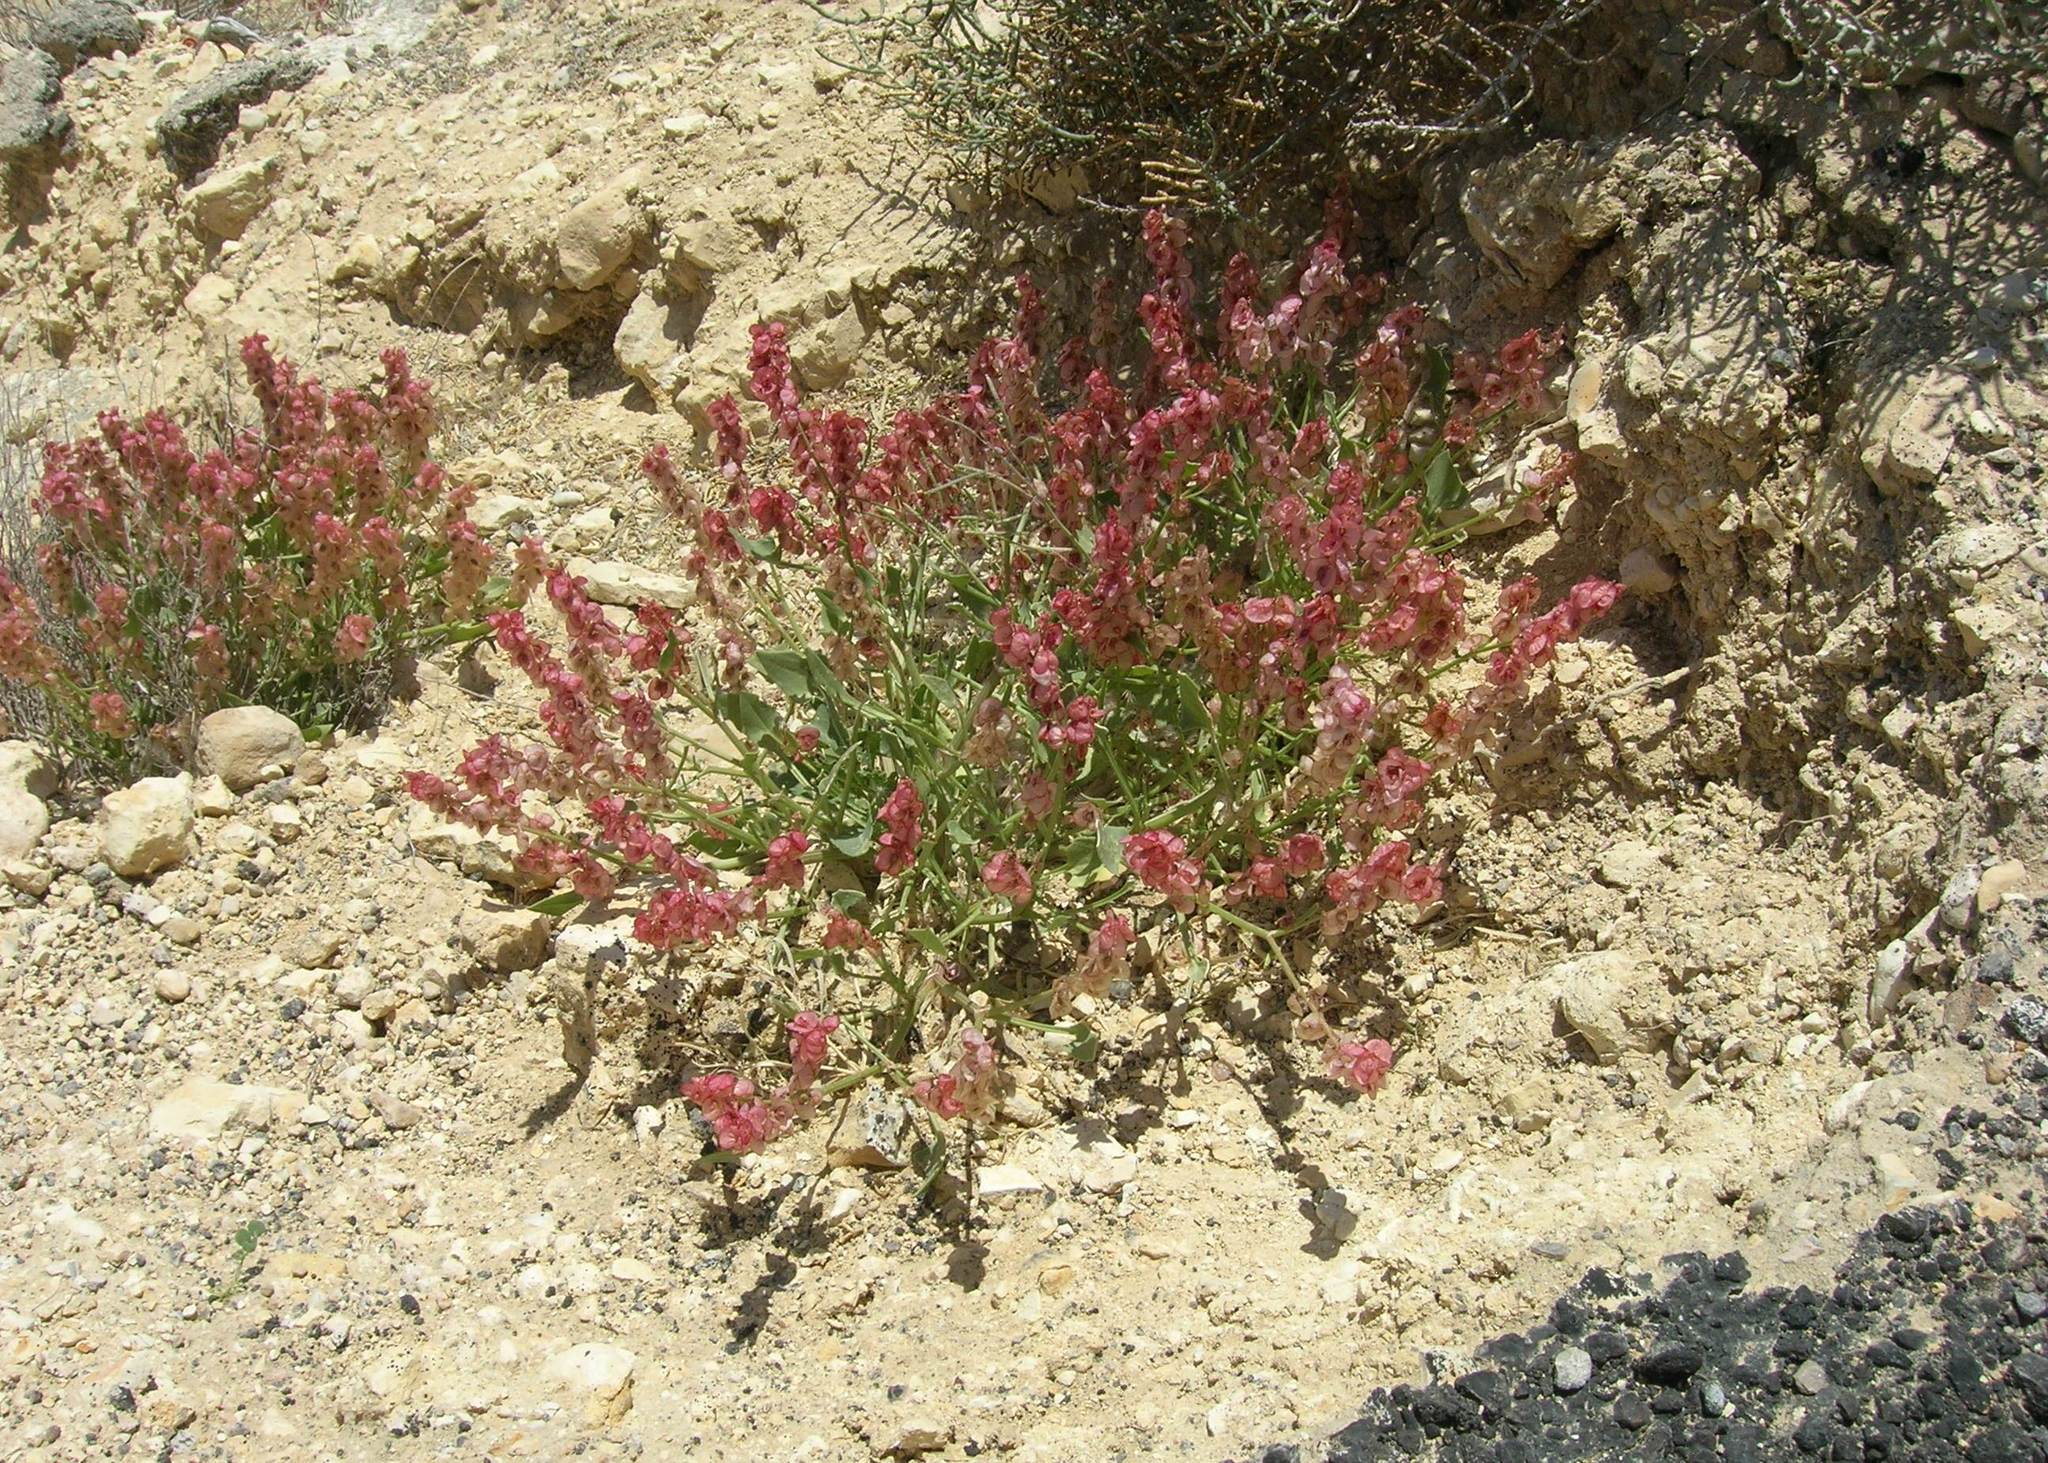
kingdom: Plantae
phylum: Tracheophyta
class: Magnoliopsida
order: Caryophyllales
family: Polygonaceae
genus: Rumex
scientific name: Rumex cyprius
